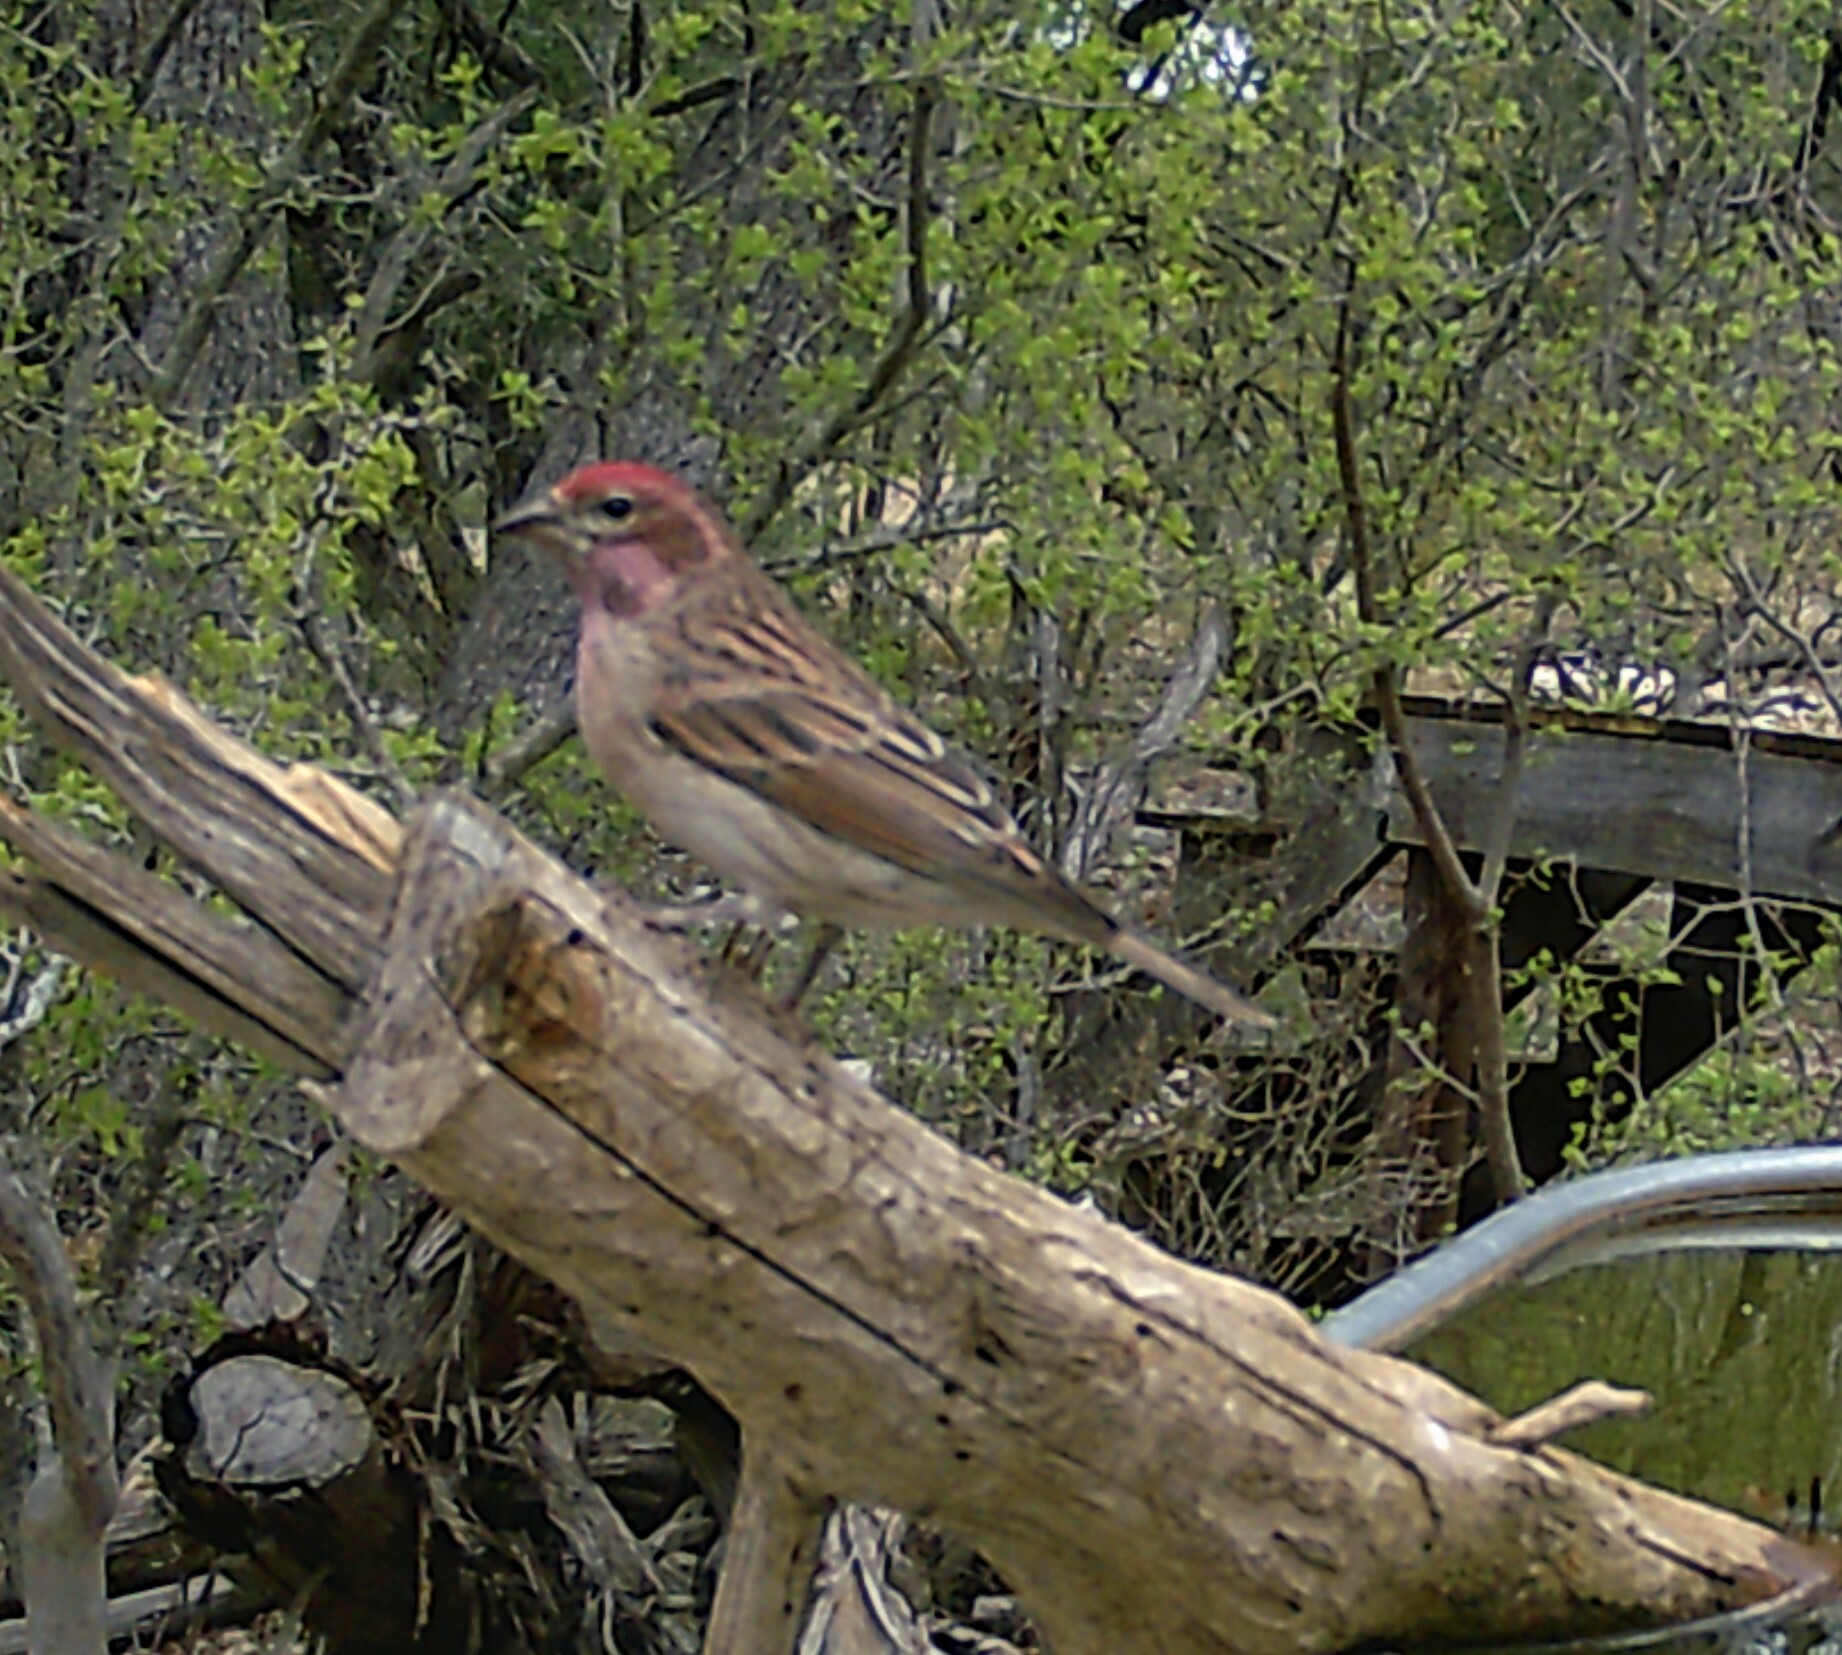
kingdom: Animalia
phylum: Chordata
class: Aves
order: Passeriformes
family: Fringillidae
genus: Haemorhous
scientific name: Haemorhous cassinii
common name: Cassin's finch
